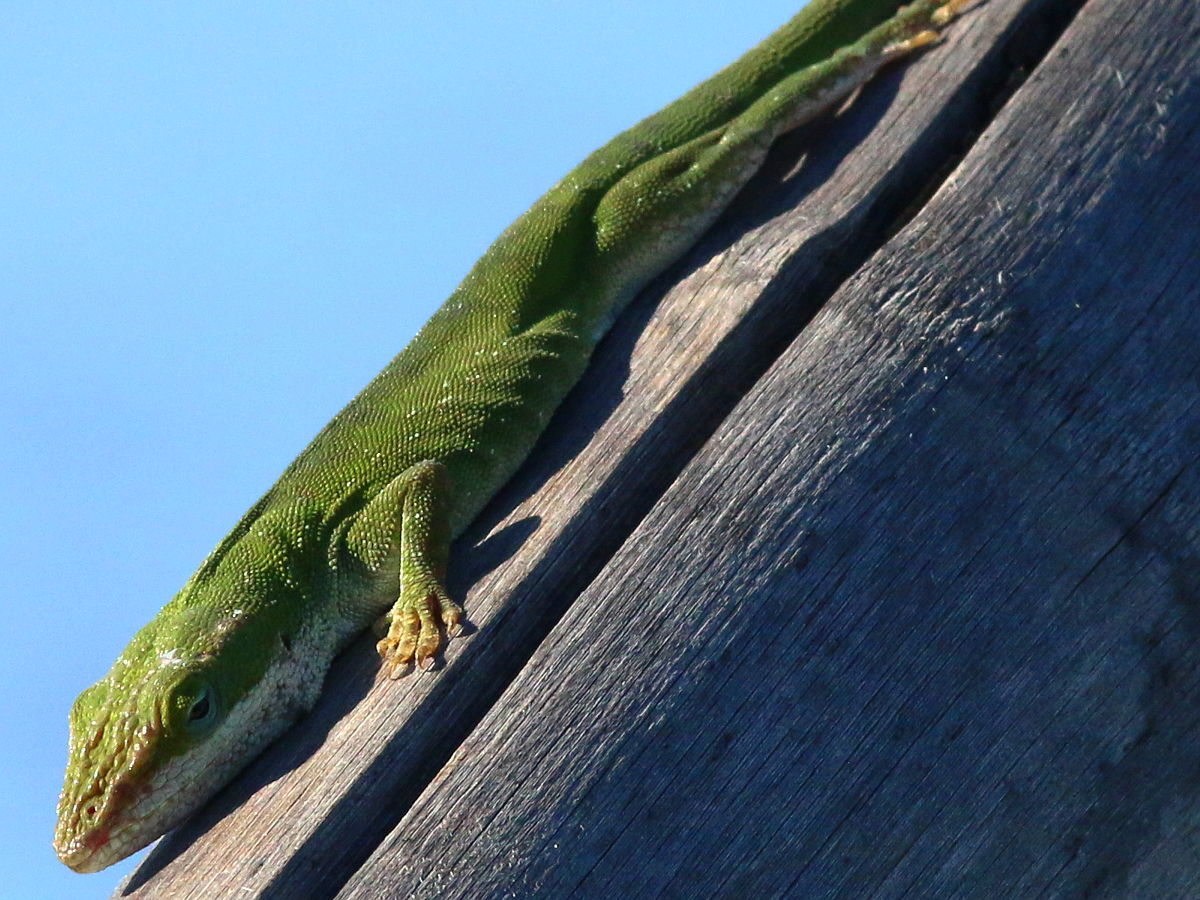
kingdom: Animalia
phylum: Chordata
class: Squamata
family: Dactyloidae
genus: Anolis
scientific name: Anolis carolinensis
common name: Green anole
